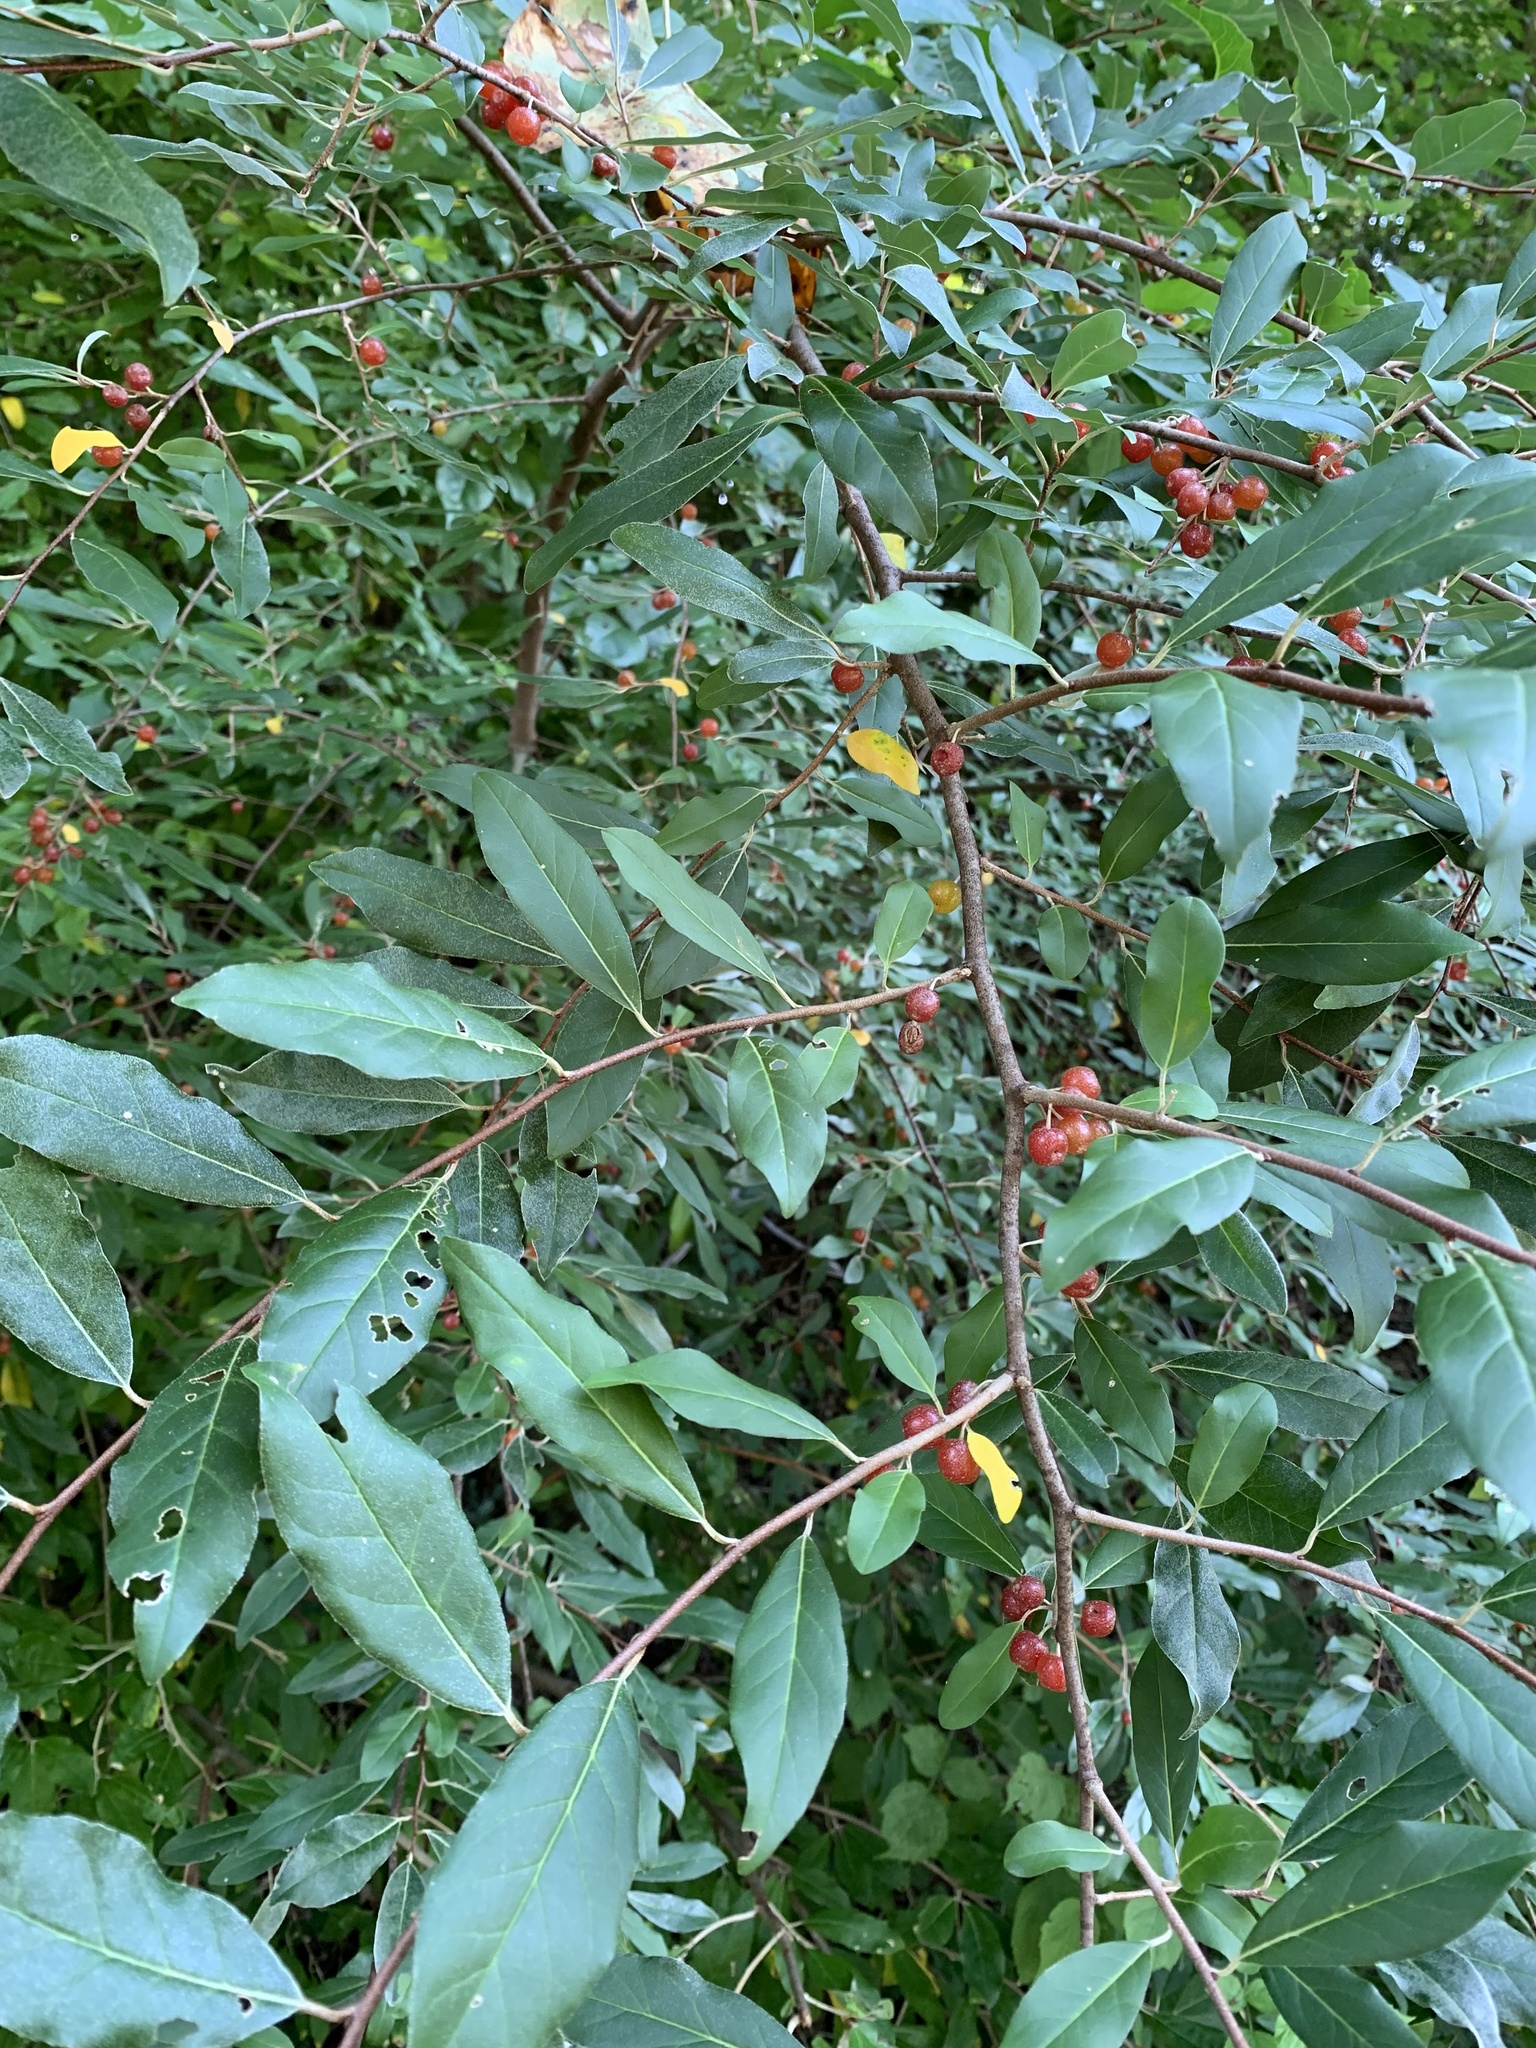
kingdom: Plantae
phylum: Tracheophyta
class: Magnoliopsida
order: Rosales
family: Elaeagnaceae
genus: Elaeagnus
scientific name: Elaeagnus umbellata
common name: Autumn olive
